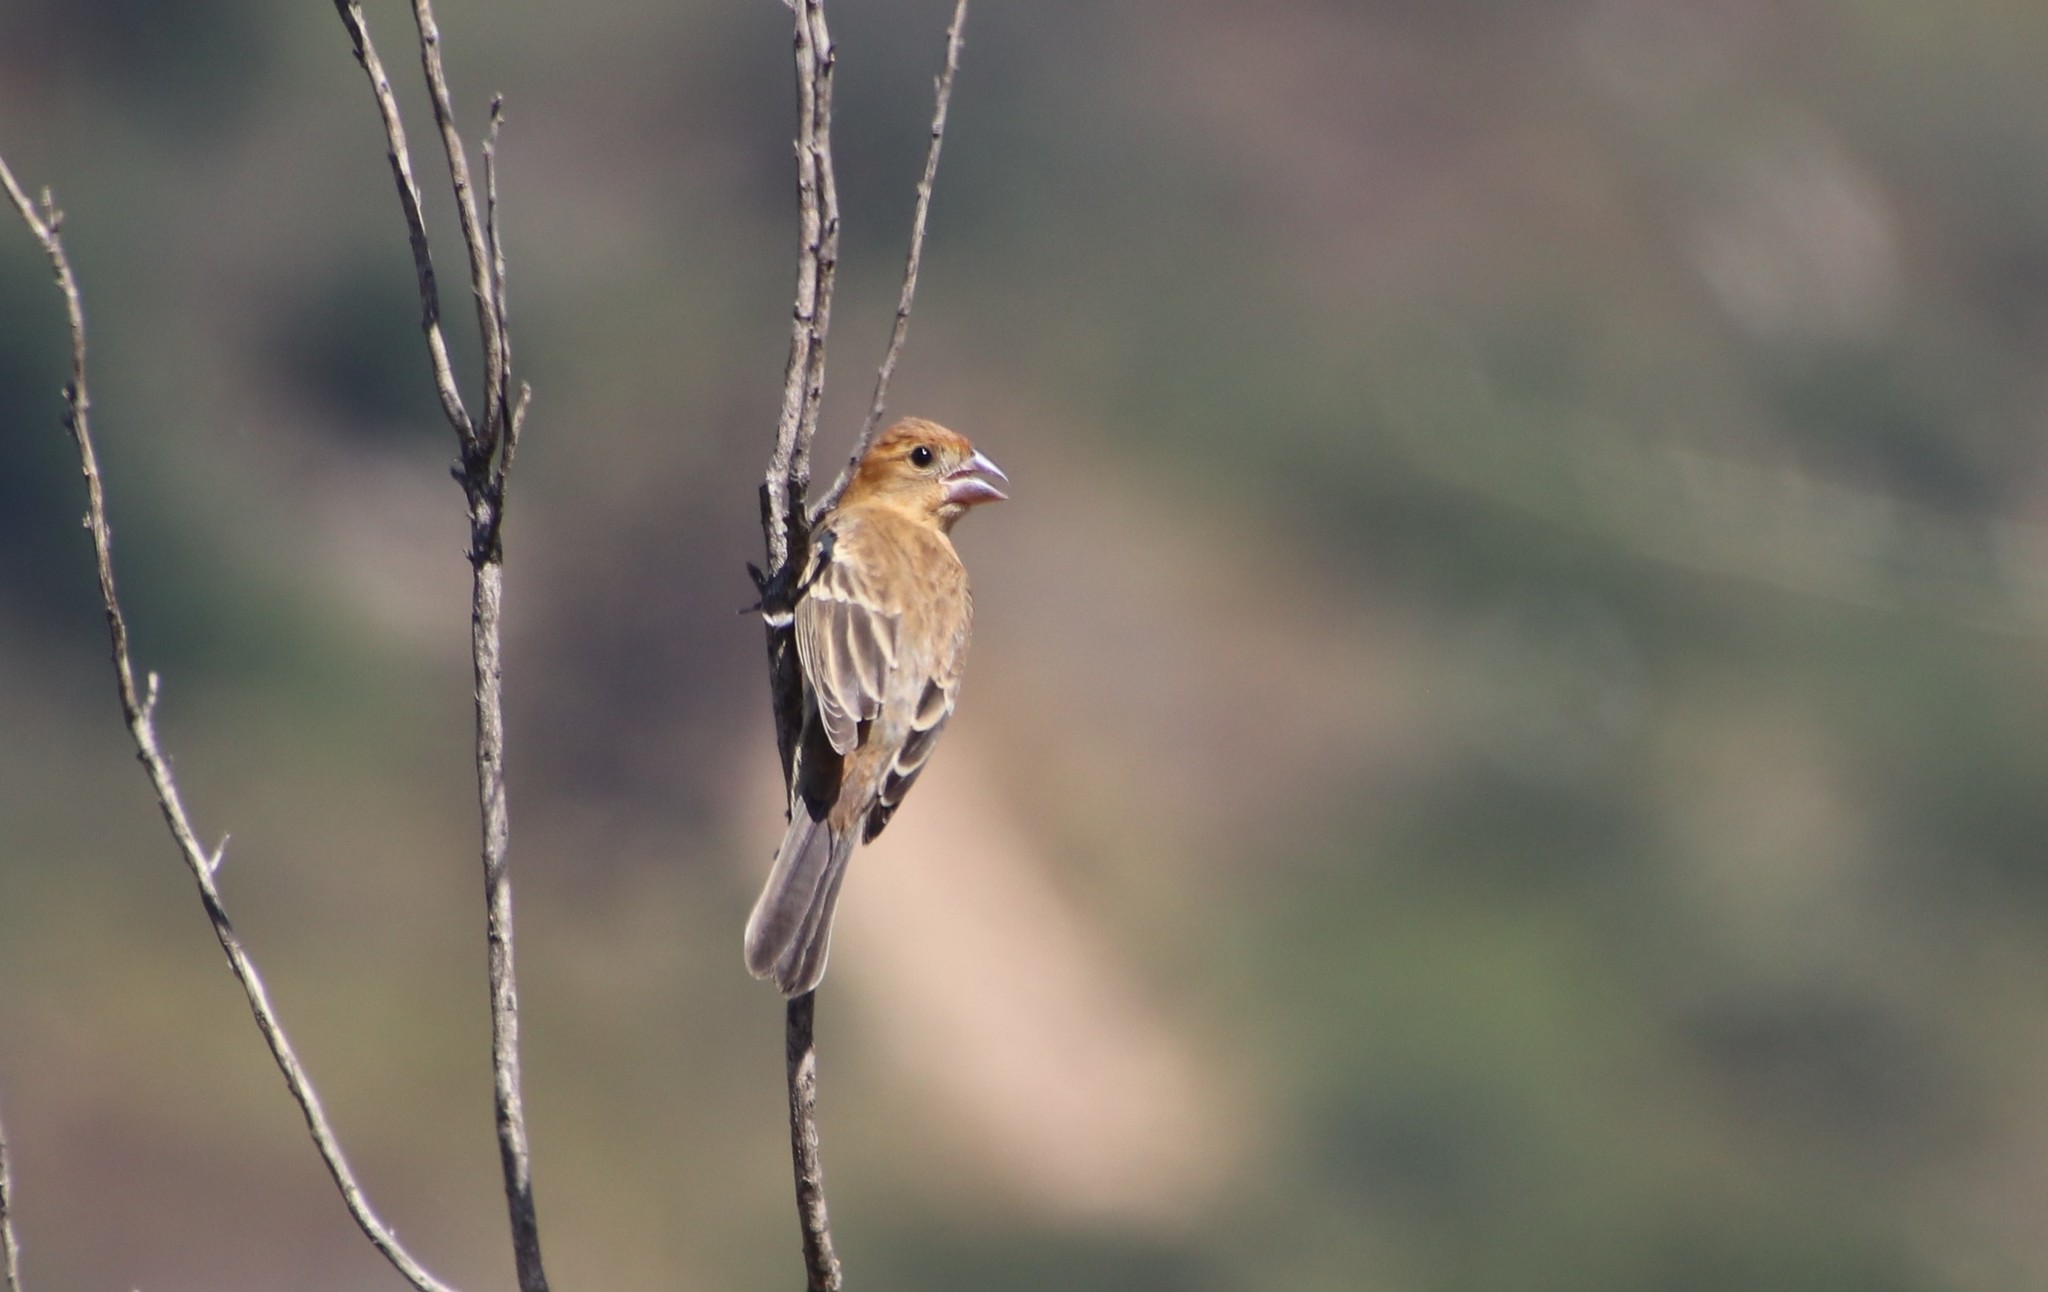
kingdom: Animalia
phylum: Chordata
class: Aves
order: Passeriformes
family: Cardinalidae
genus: Passerina
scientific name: Passerina caerulea
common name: Blue grosbeak
